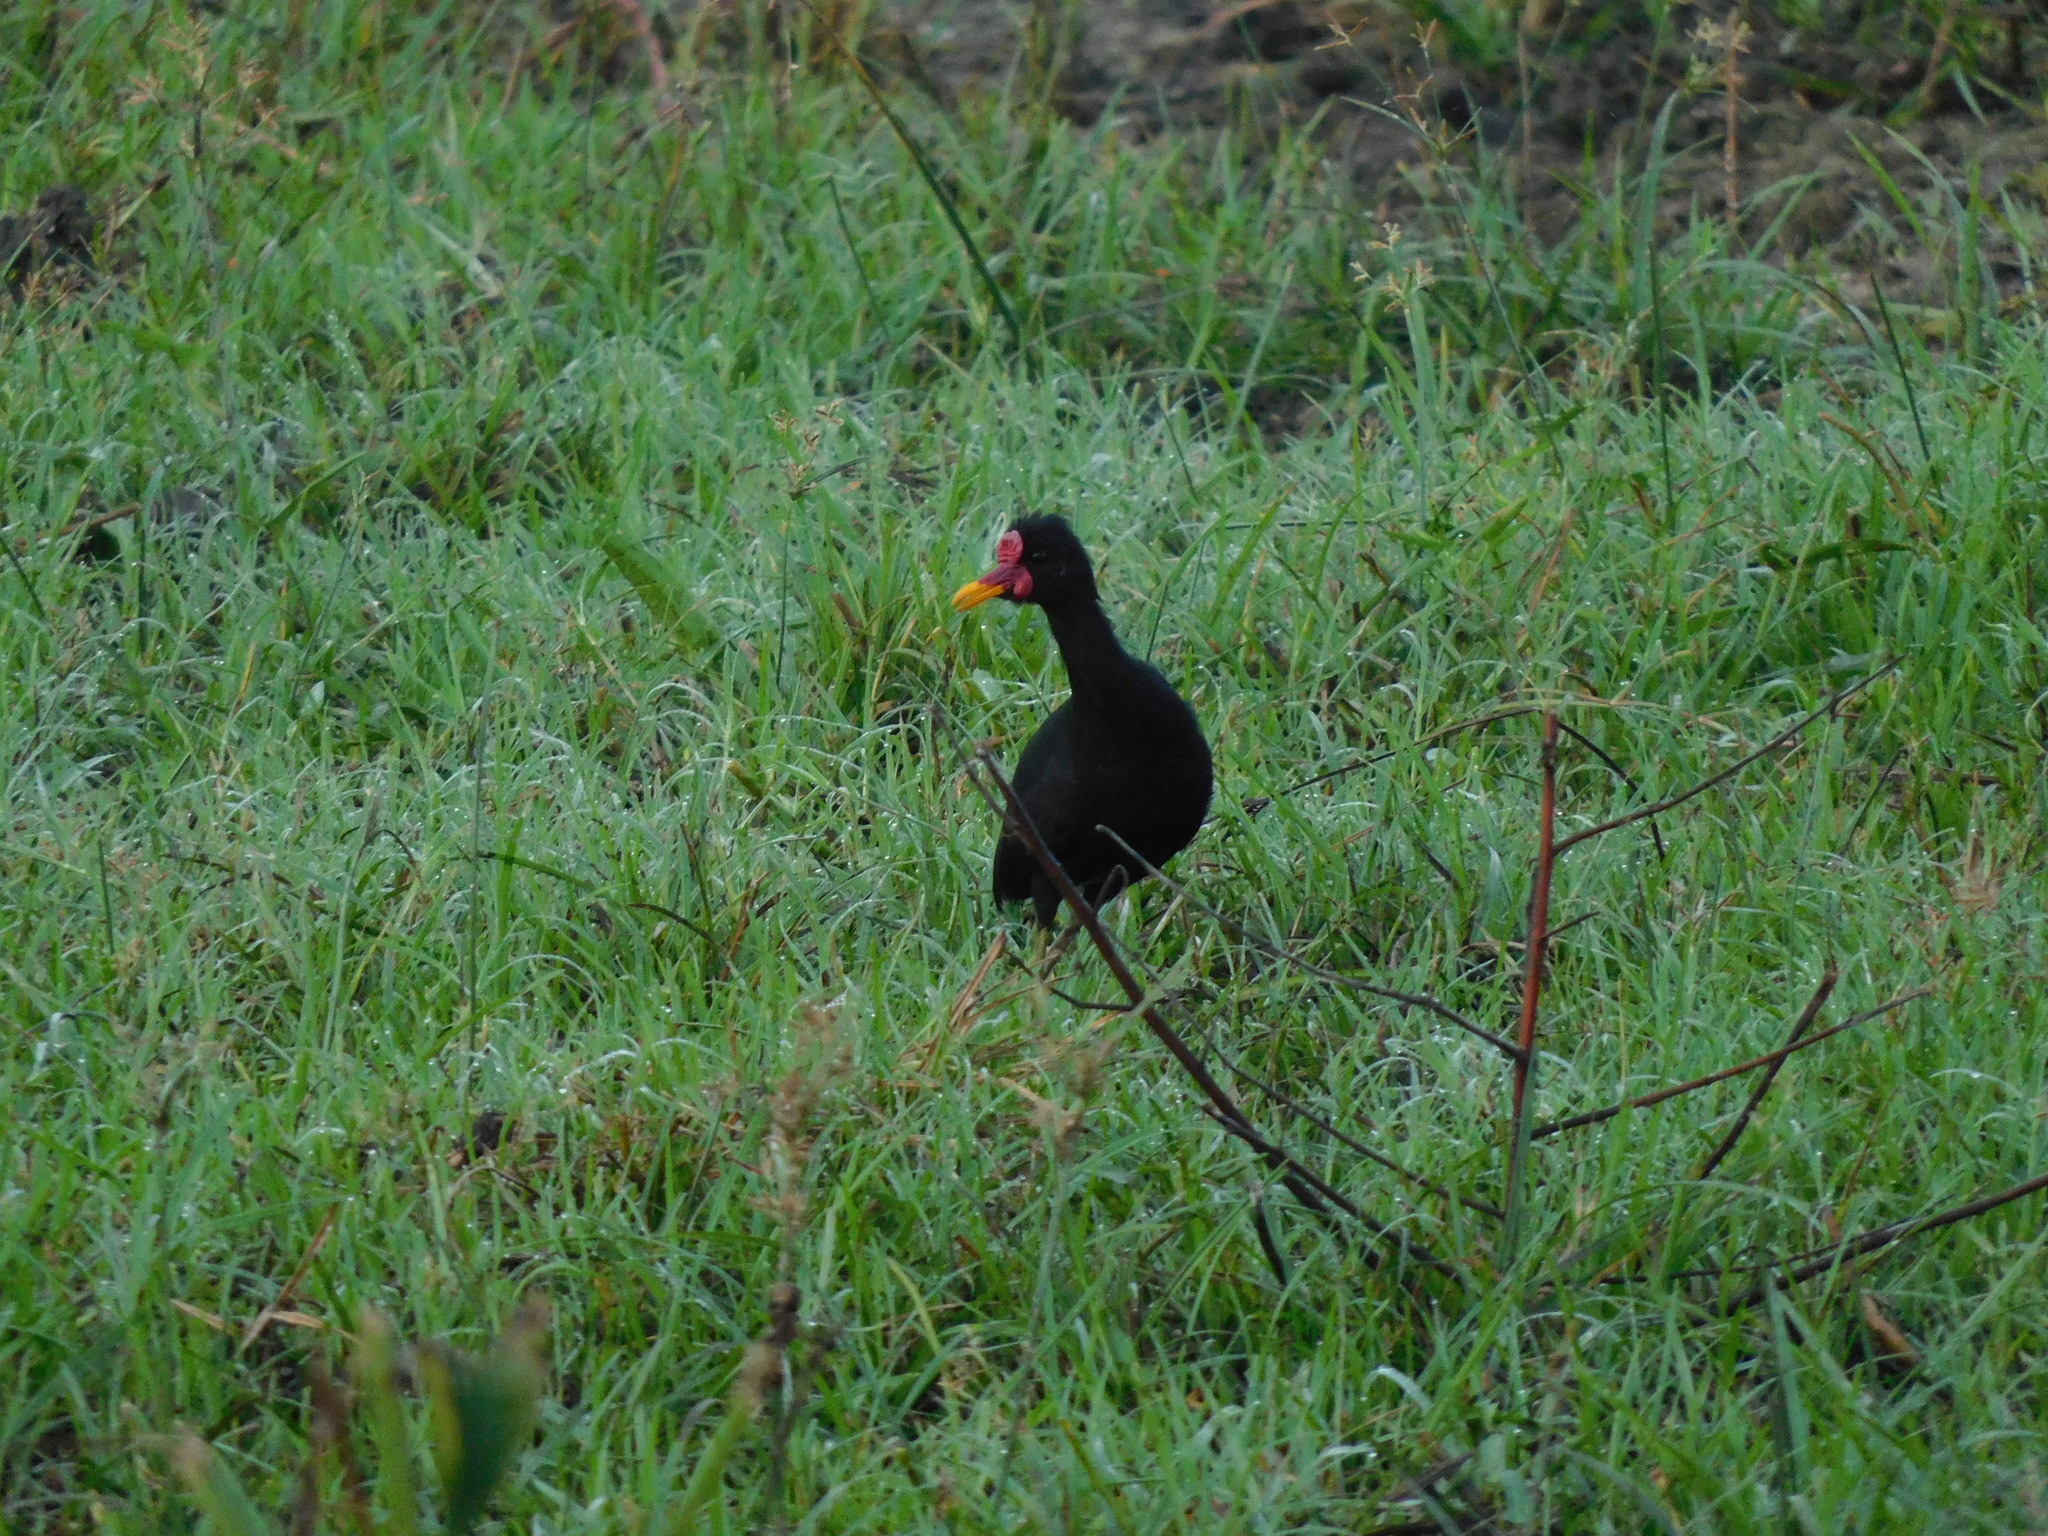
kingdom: Animalia
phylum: Chordata
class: Aves
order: Charadriiformes
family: Jacanidae
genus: Jacana
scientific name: Jacana jacana
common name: Wattled jacana
